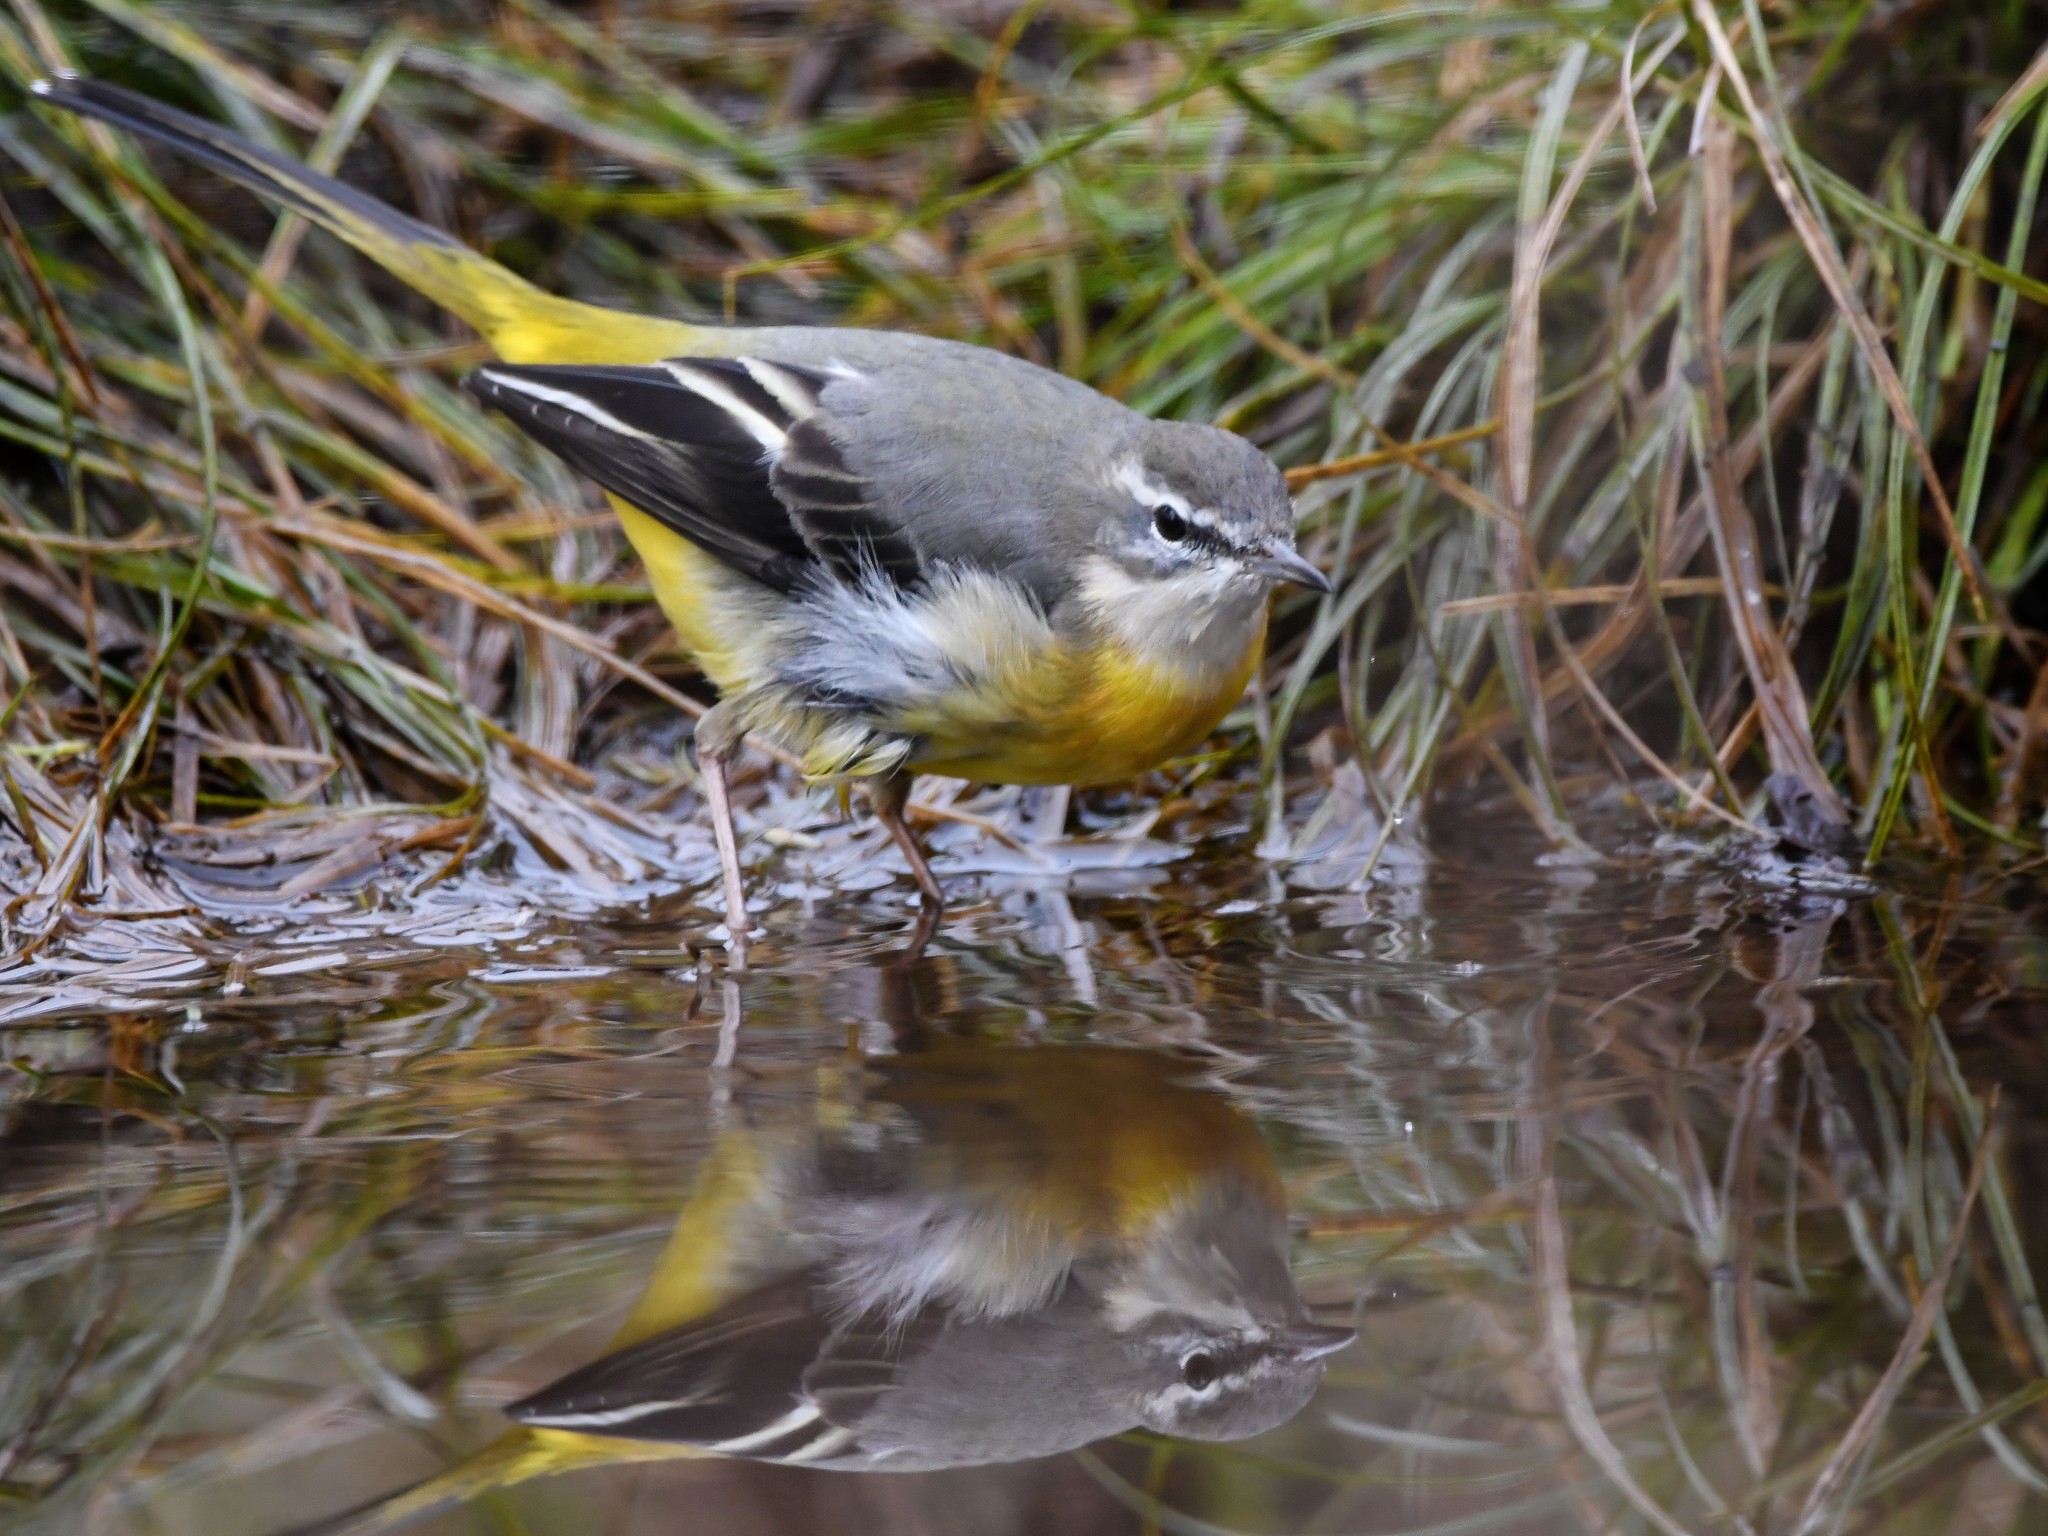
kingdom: Animalia
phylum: Chordata
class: Aves
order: Passeriformes
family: Motacillidae
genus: Motacilla
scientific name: Motacilla cinerea
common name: Grey wagtail
